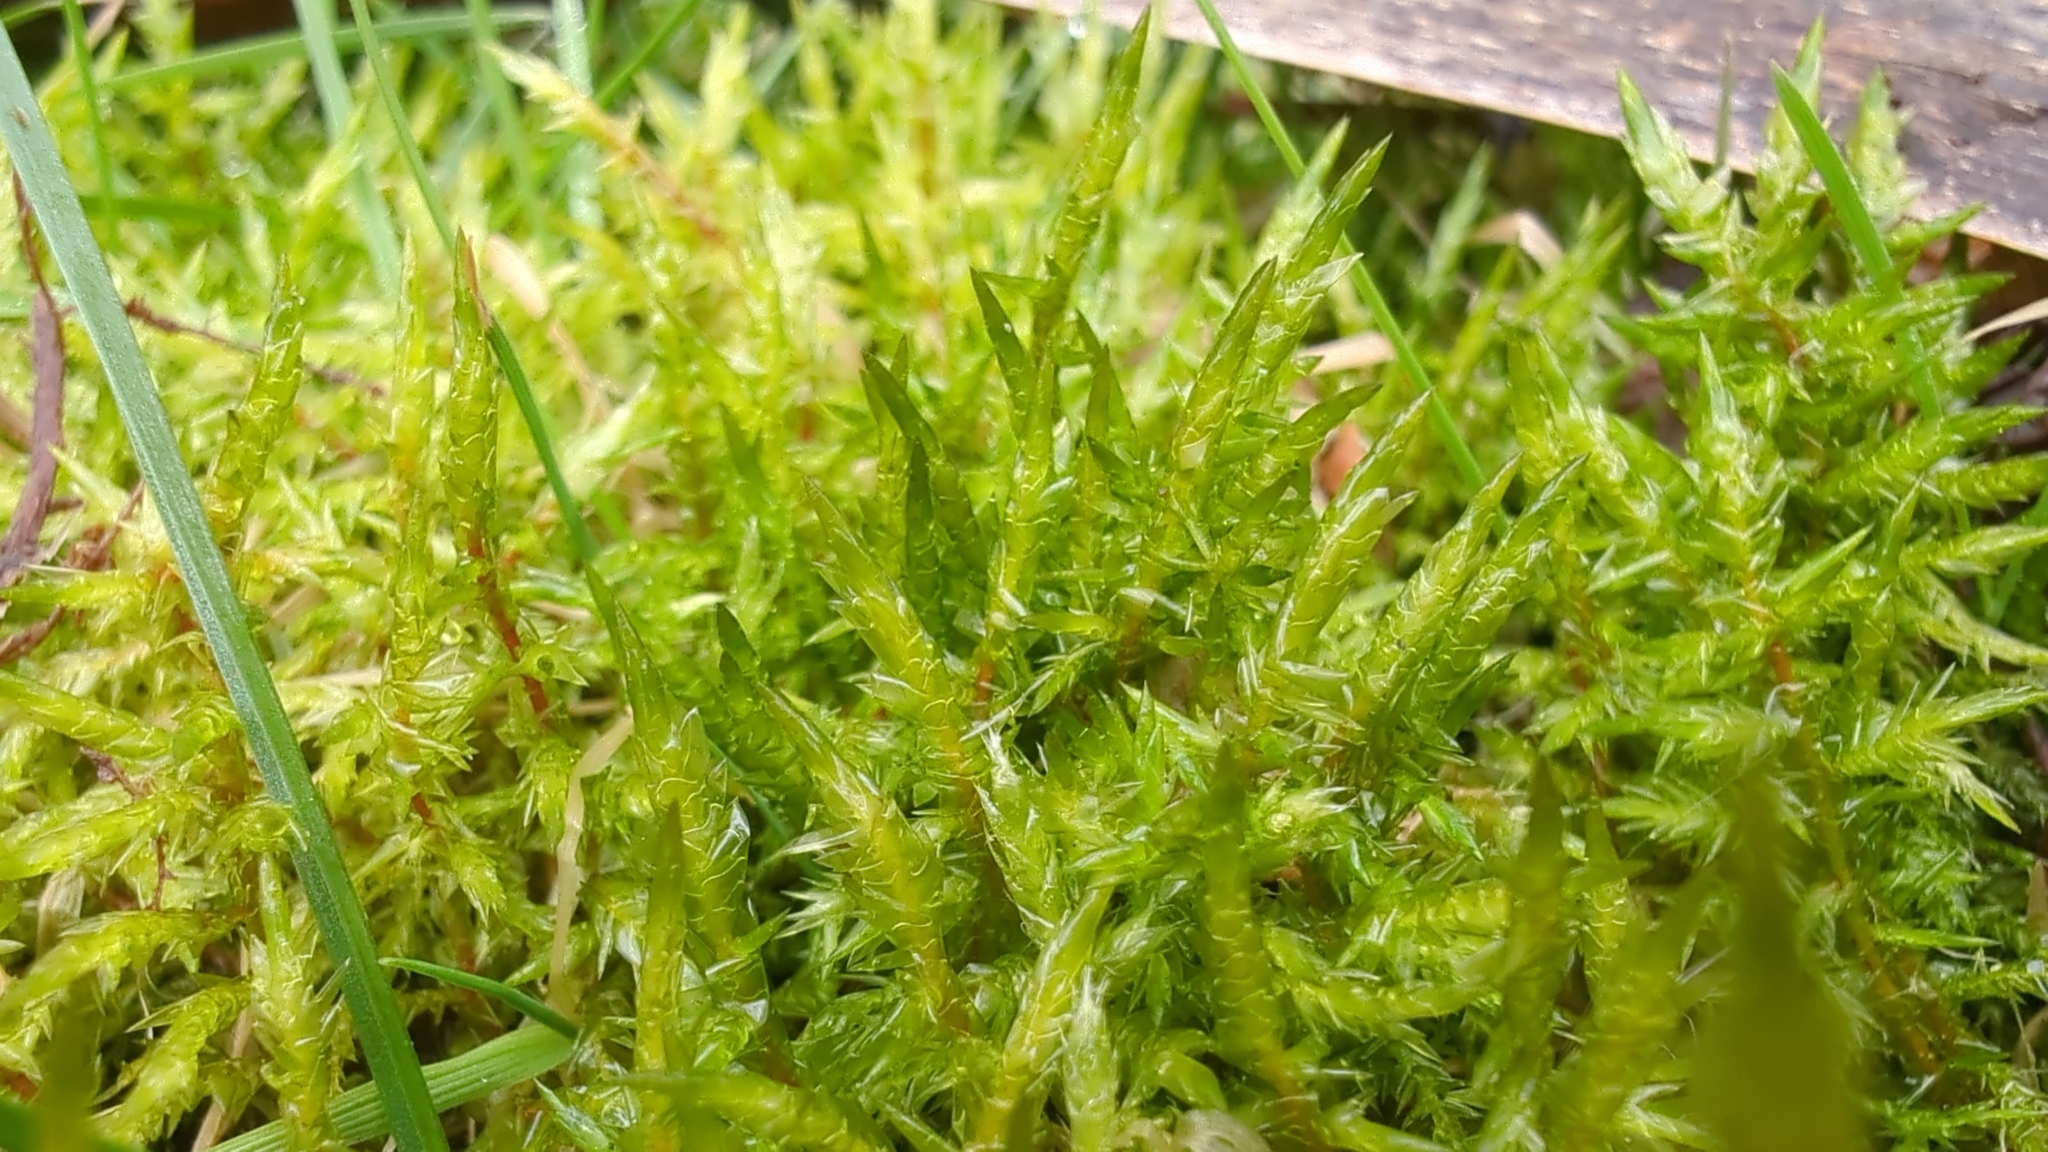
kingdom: Plantae
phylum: Bryophyta
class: Bryopsida
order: Hypnales
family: Pylaisiaceae
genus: Calliergonella
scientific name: Calliergonella cuspidata
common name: Common large wetland moss
